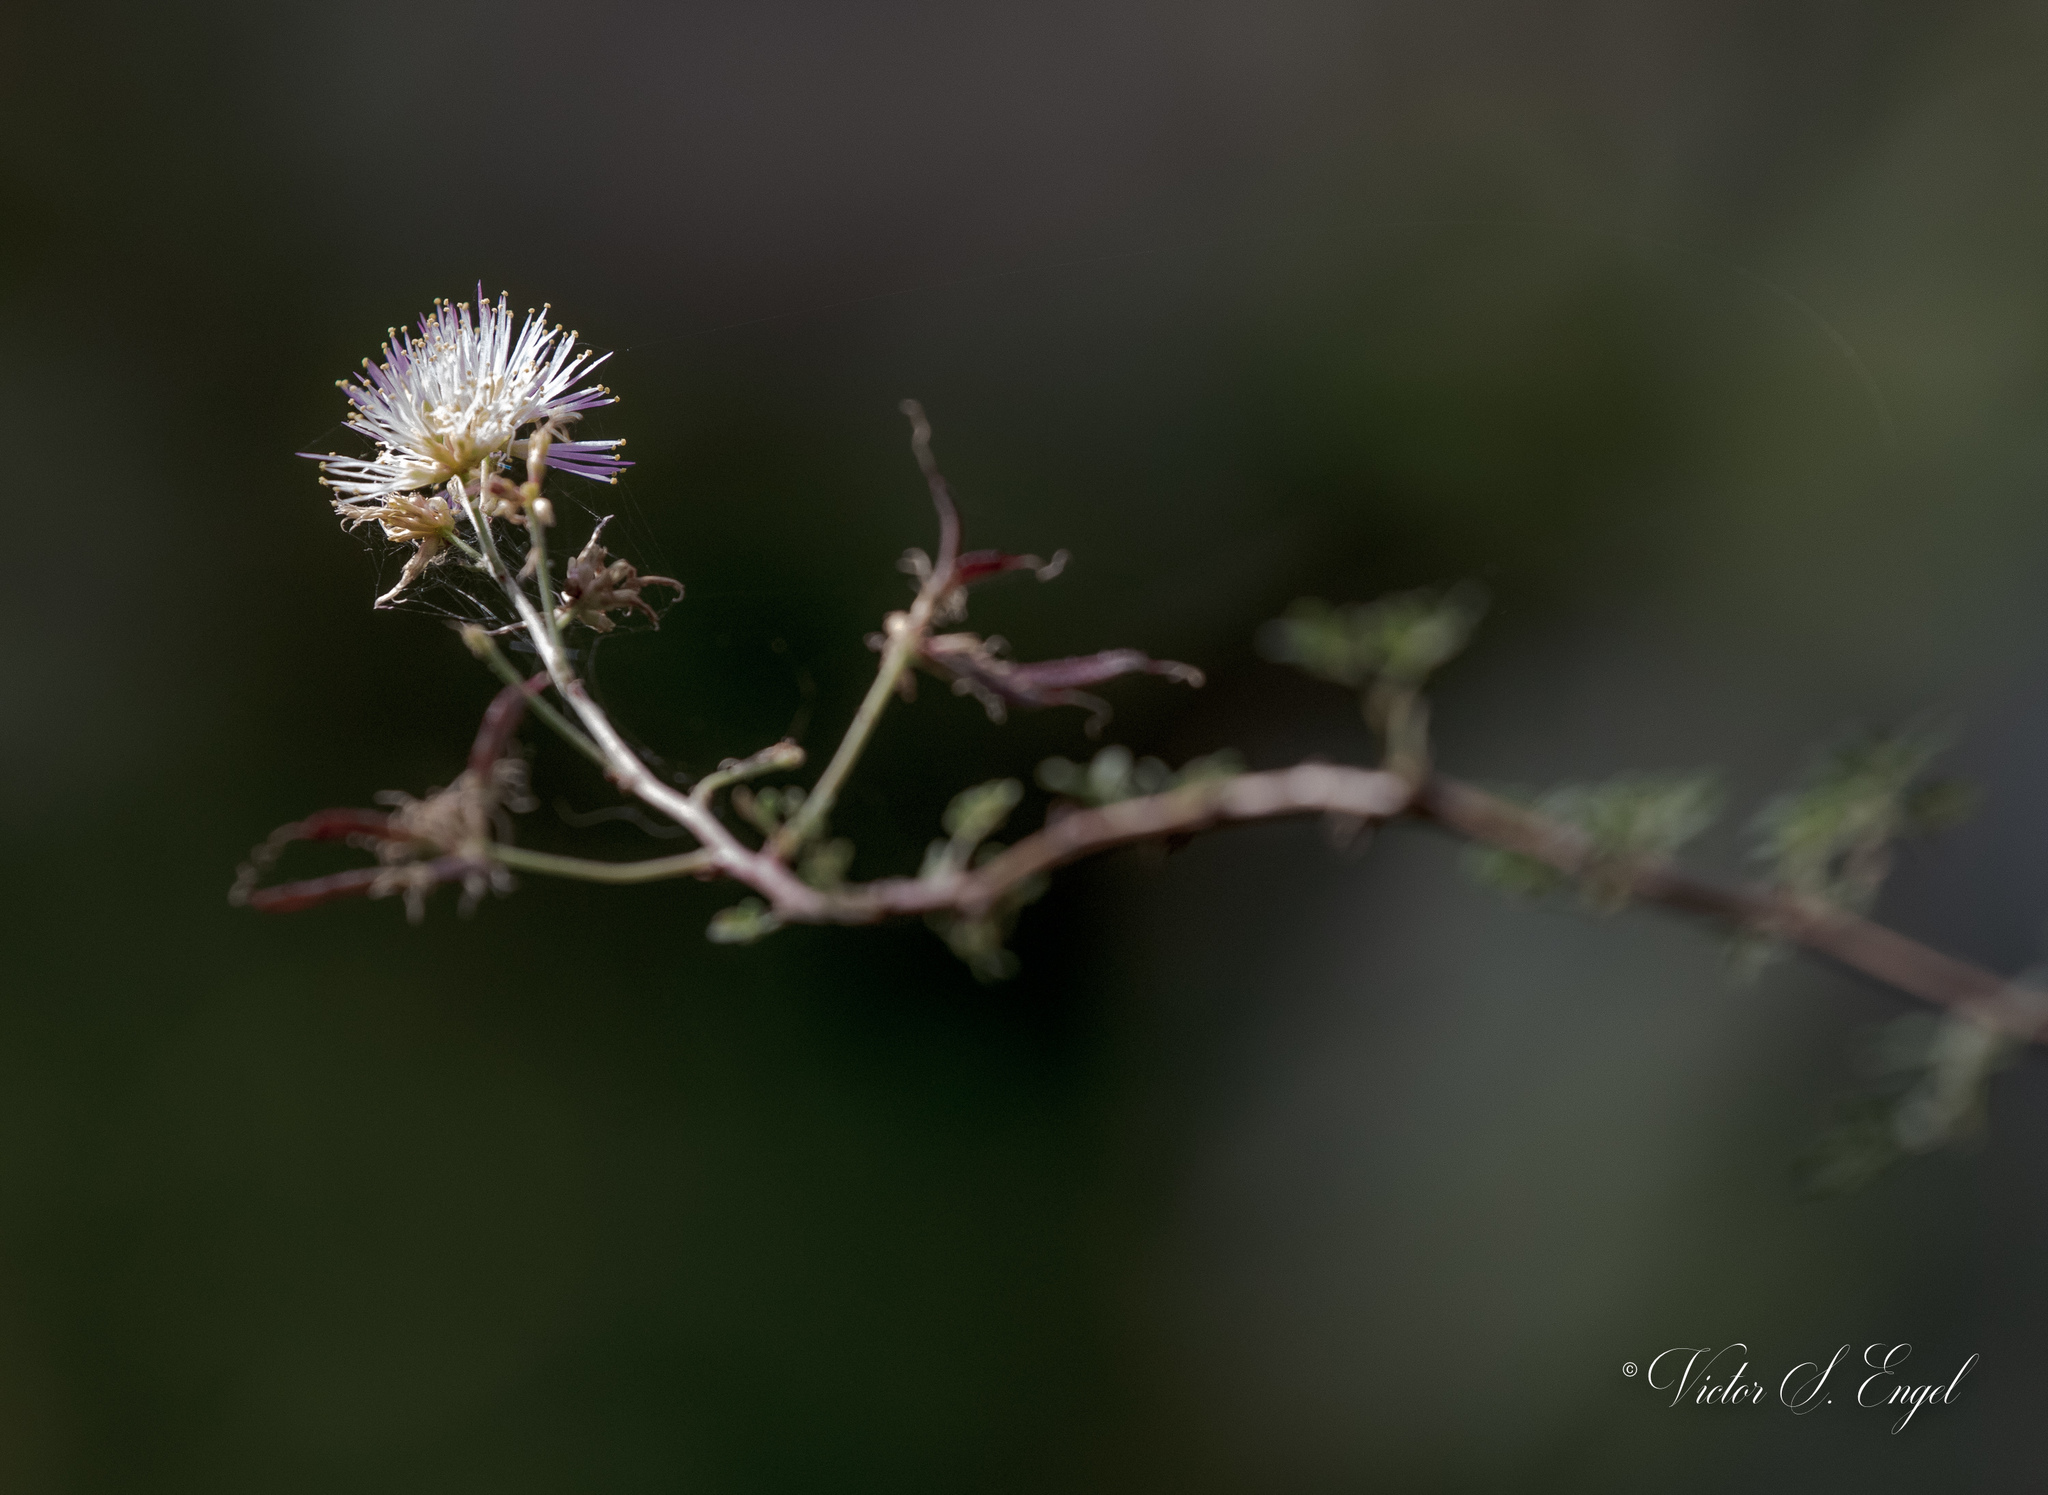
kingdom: Plantae
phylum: Tracheophyta
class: Magnoliopsida
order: Fabales
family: Fabaceae
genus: Mimosa
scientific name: Mimosa texana
